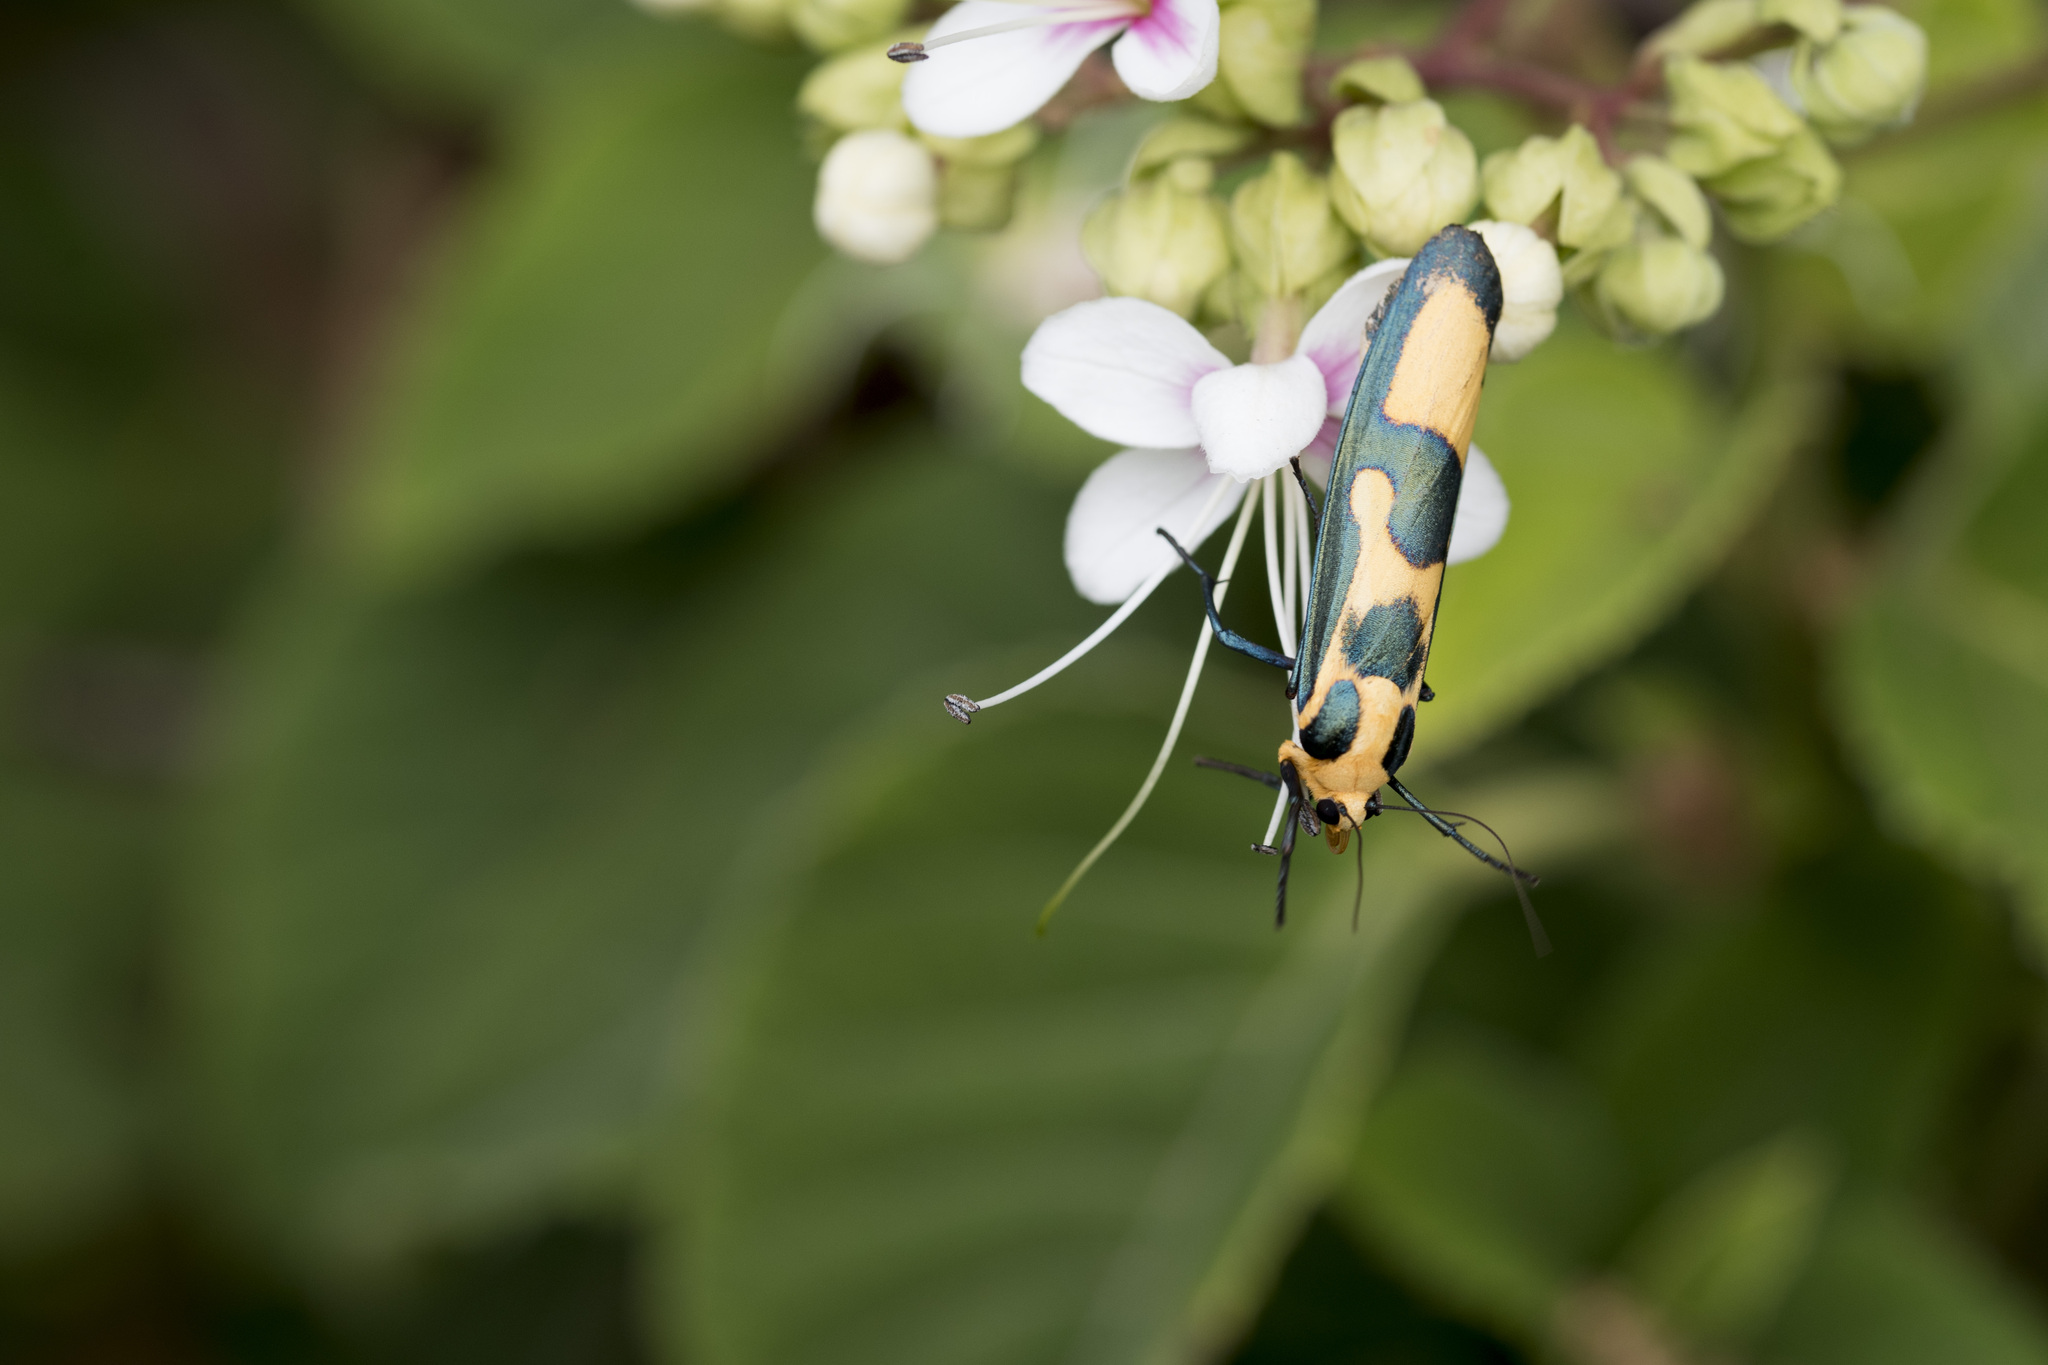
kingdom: Animalia
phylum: Arthropoda
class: Insecta
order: Lepidoptera
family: Erebidae
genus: Chrysaeglia
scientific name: Chrysaeglia magnifica
